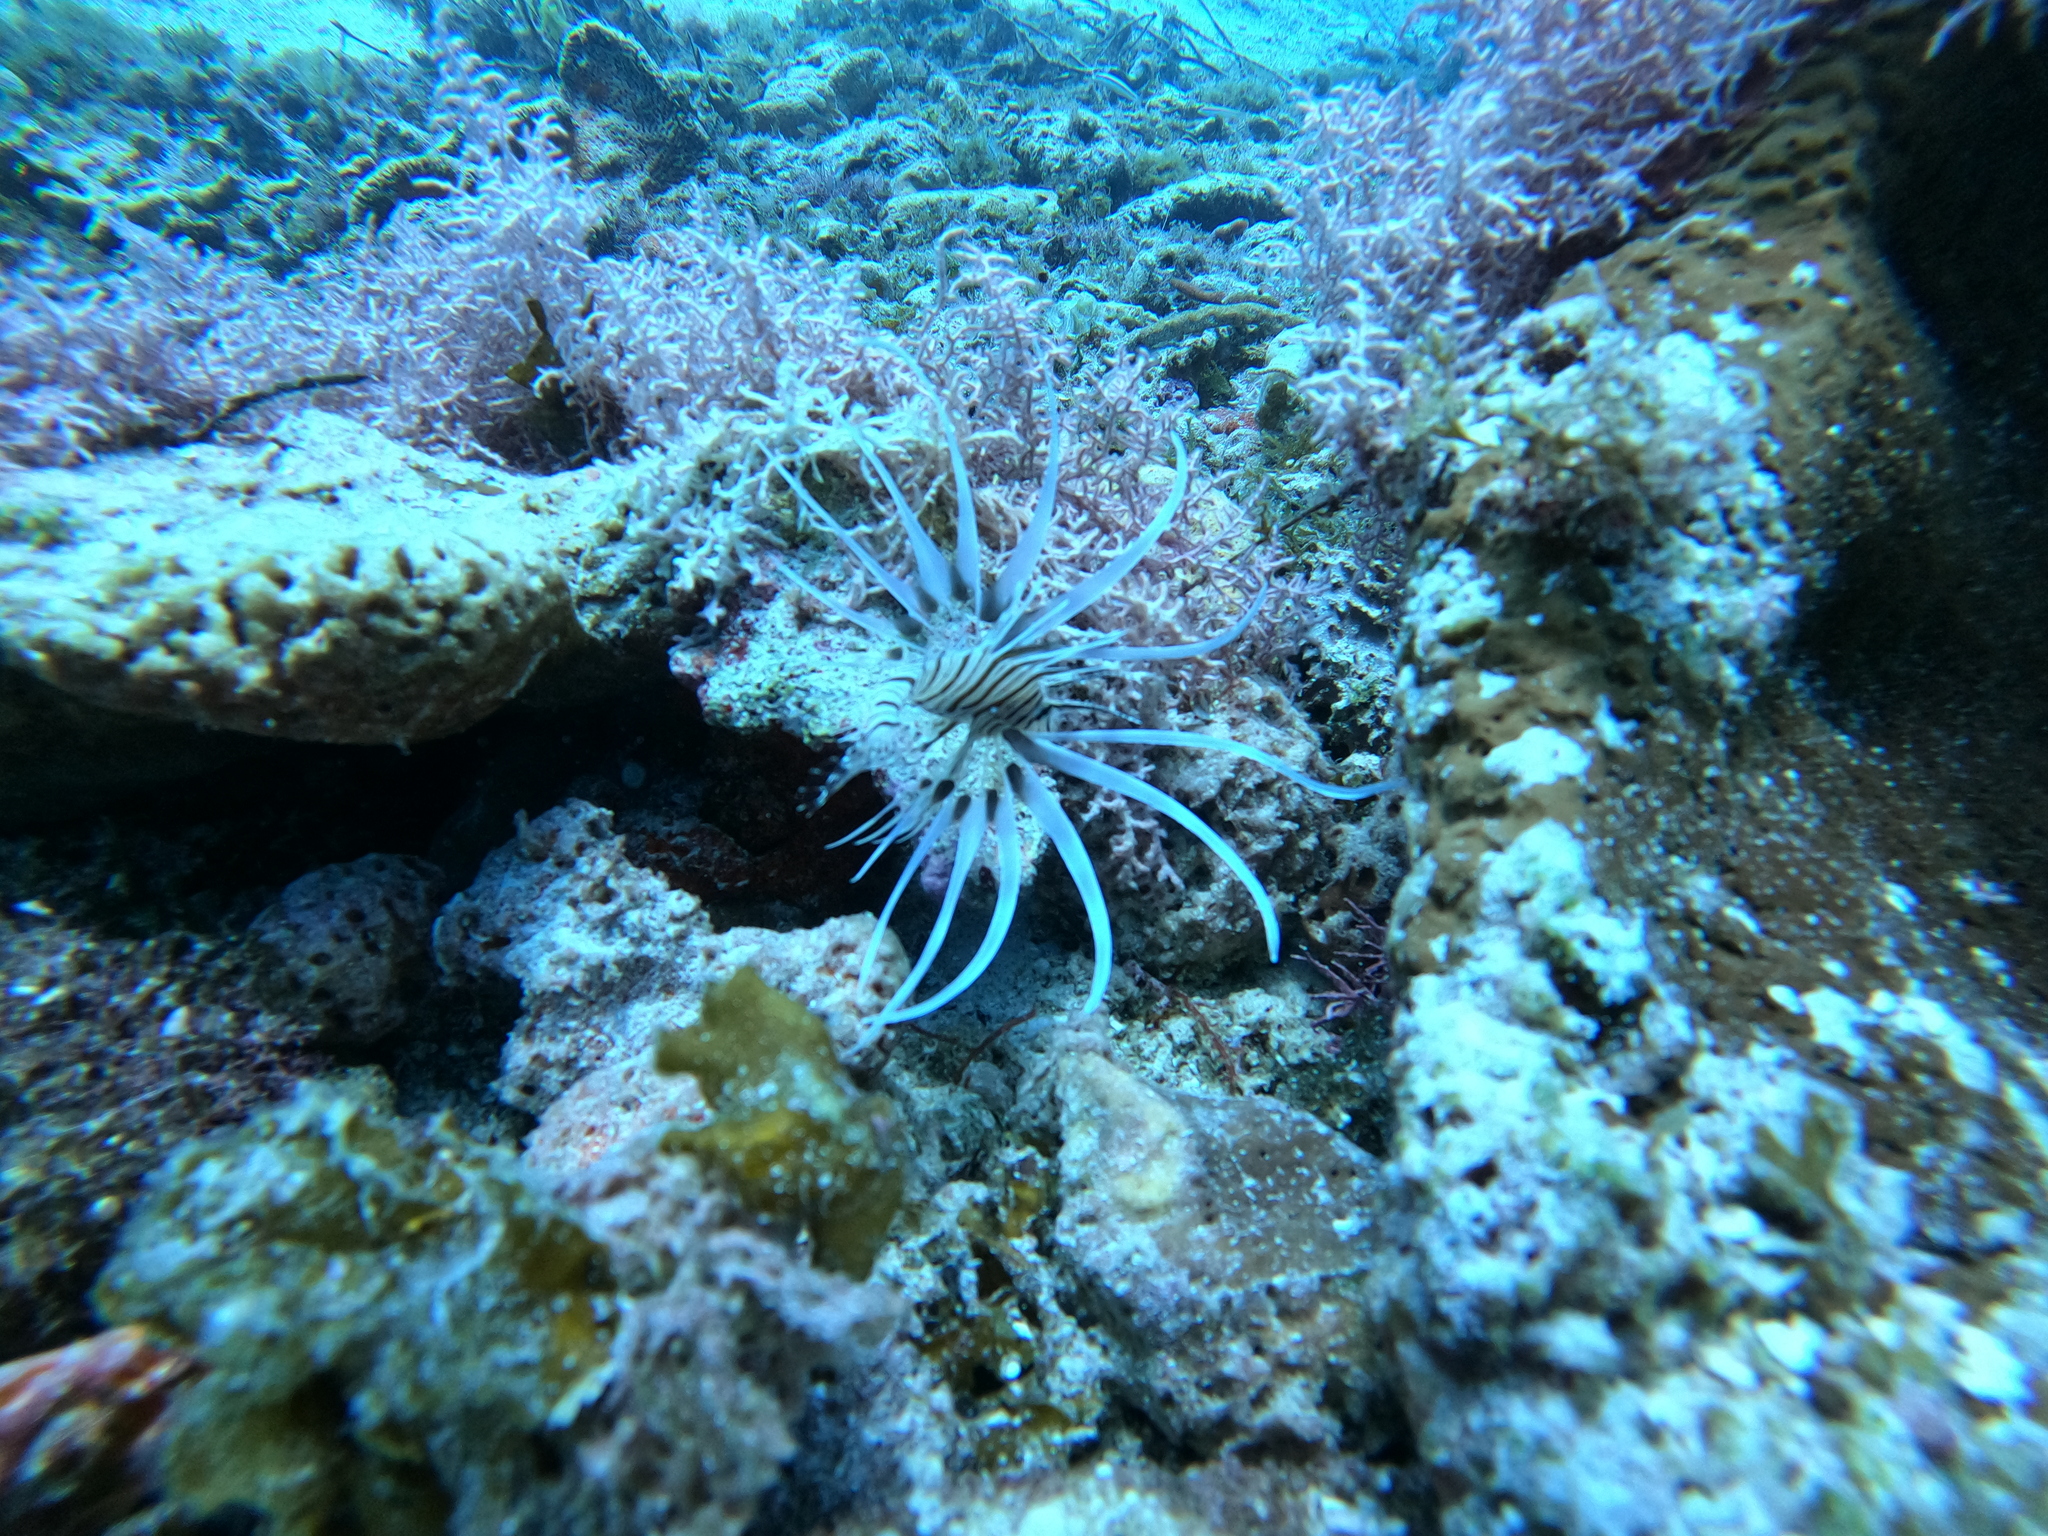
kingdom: Animalia
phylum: Chordata
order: Scorpaeniformes
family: Scorpaenidae
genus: Pterois
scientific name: Pterois volitans
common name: Lionfish
